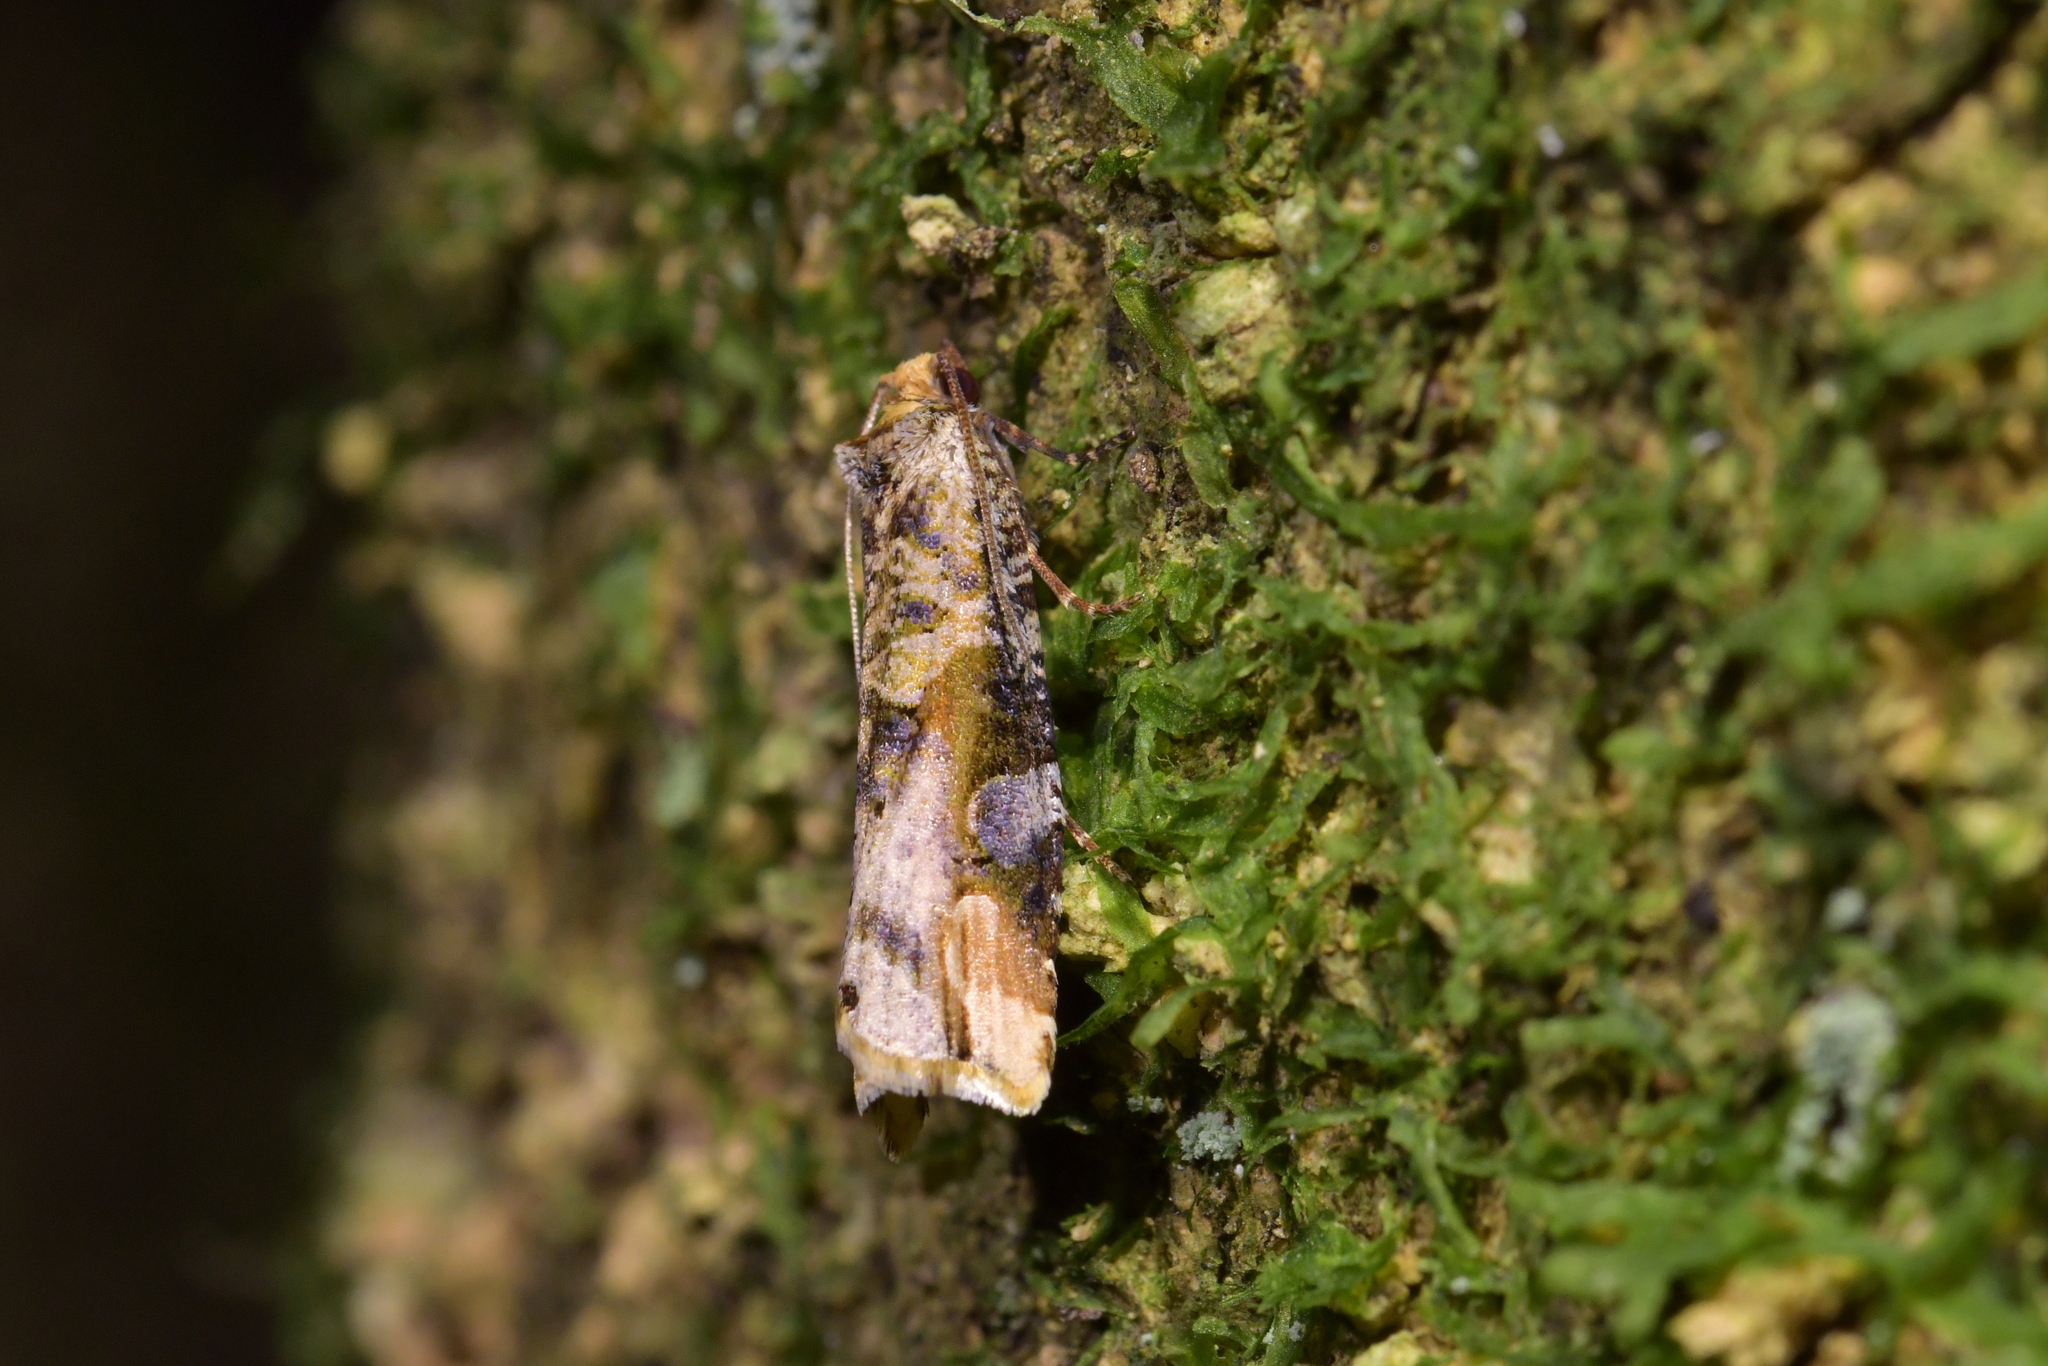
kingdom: Animalia
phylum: Arthropoda
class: Insecta
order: Lepidoptera
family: Tortricidae
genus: Epalxiphora
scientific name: Epalxiphora axenana
